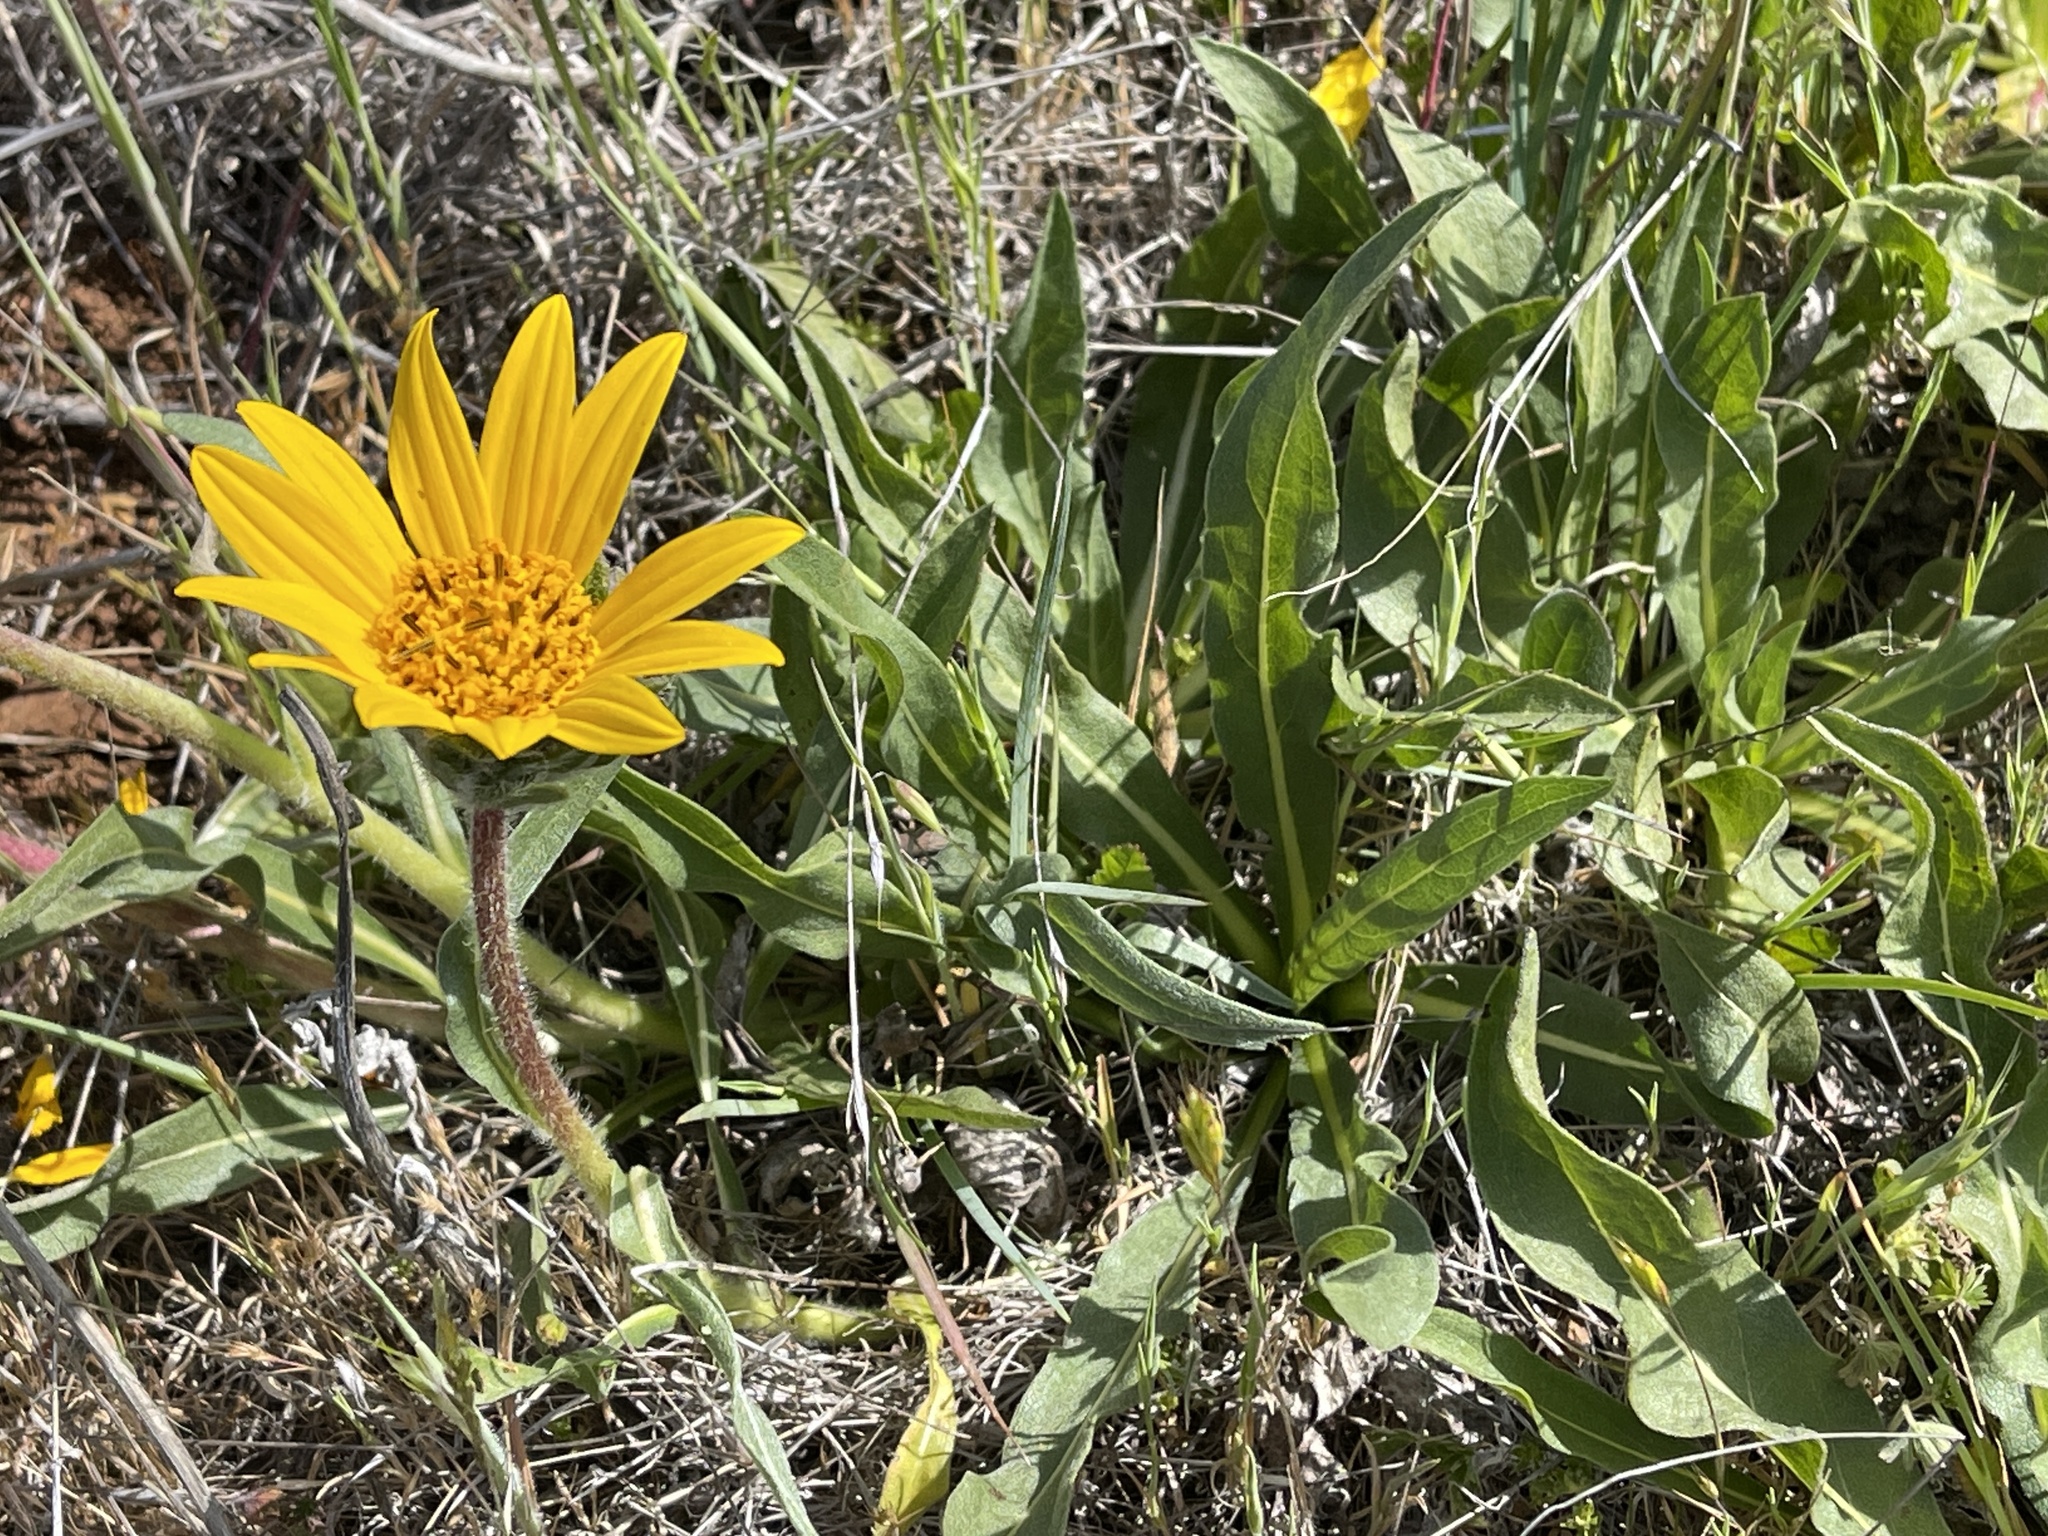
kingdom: Plantae
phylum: Tracheophyta
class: Magnoliopsida
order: Asterales
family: Asteraceae
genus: Wyethia
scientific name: Wyethia angustifolia
